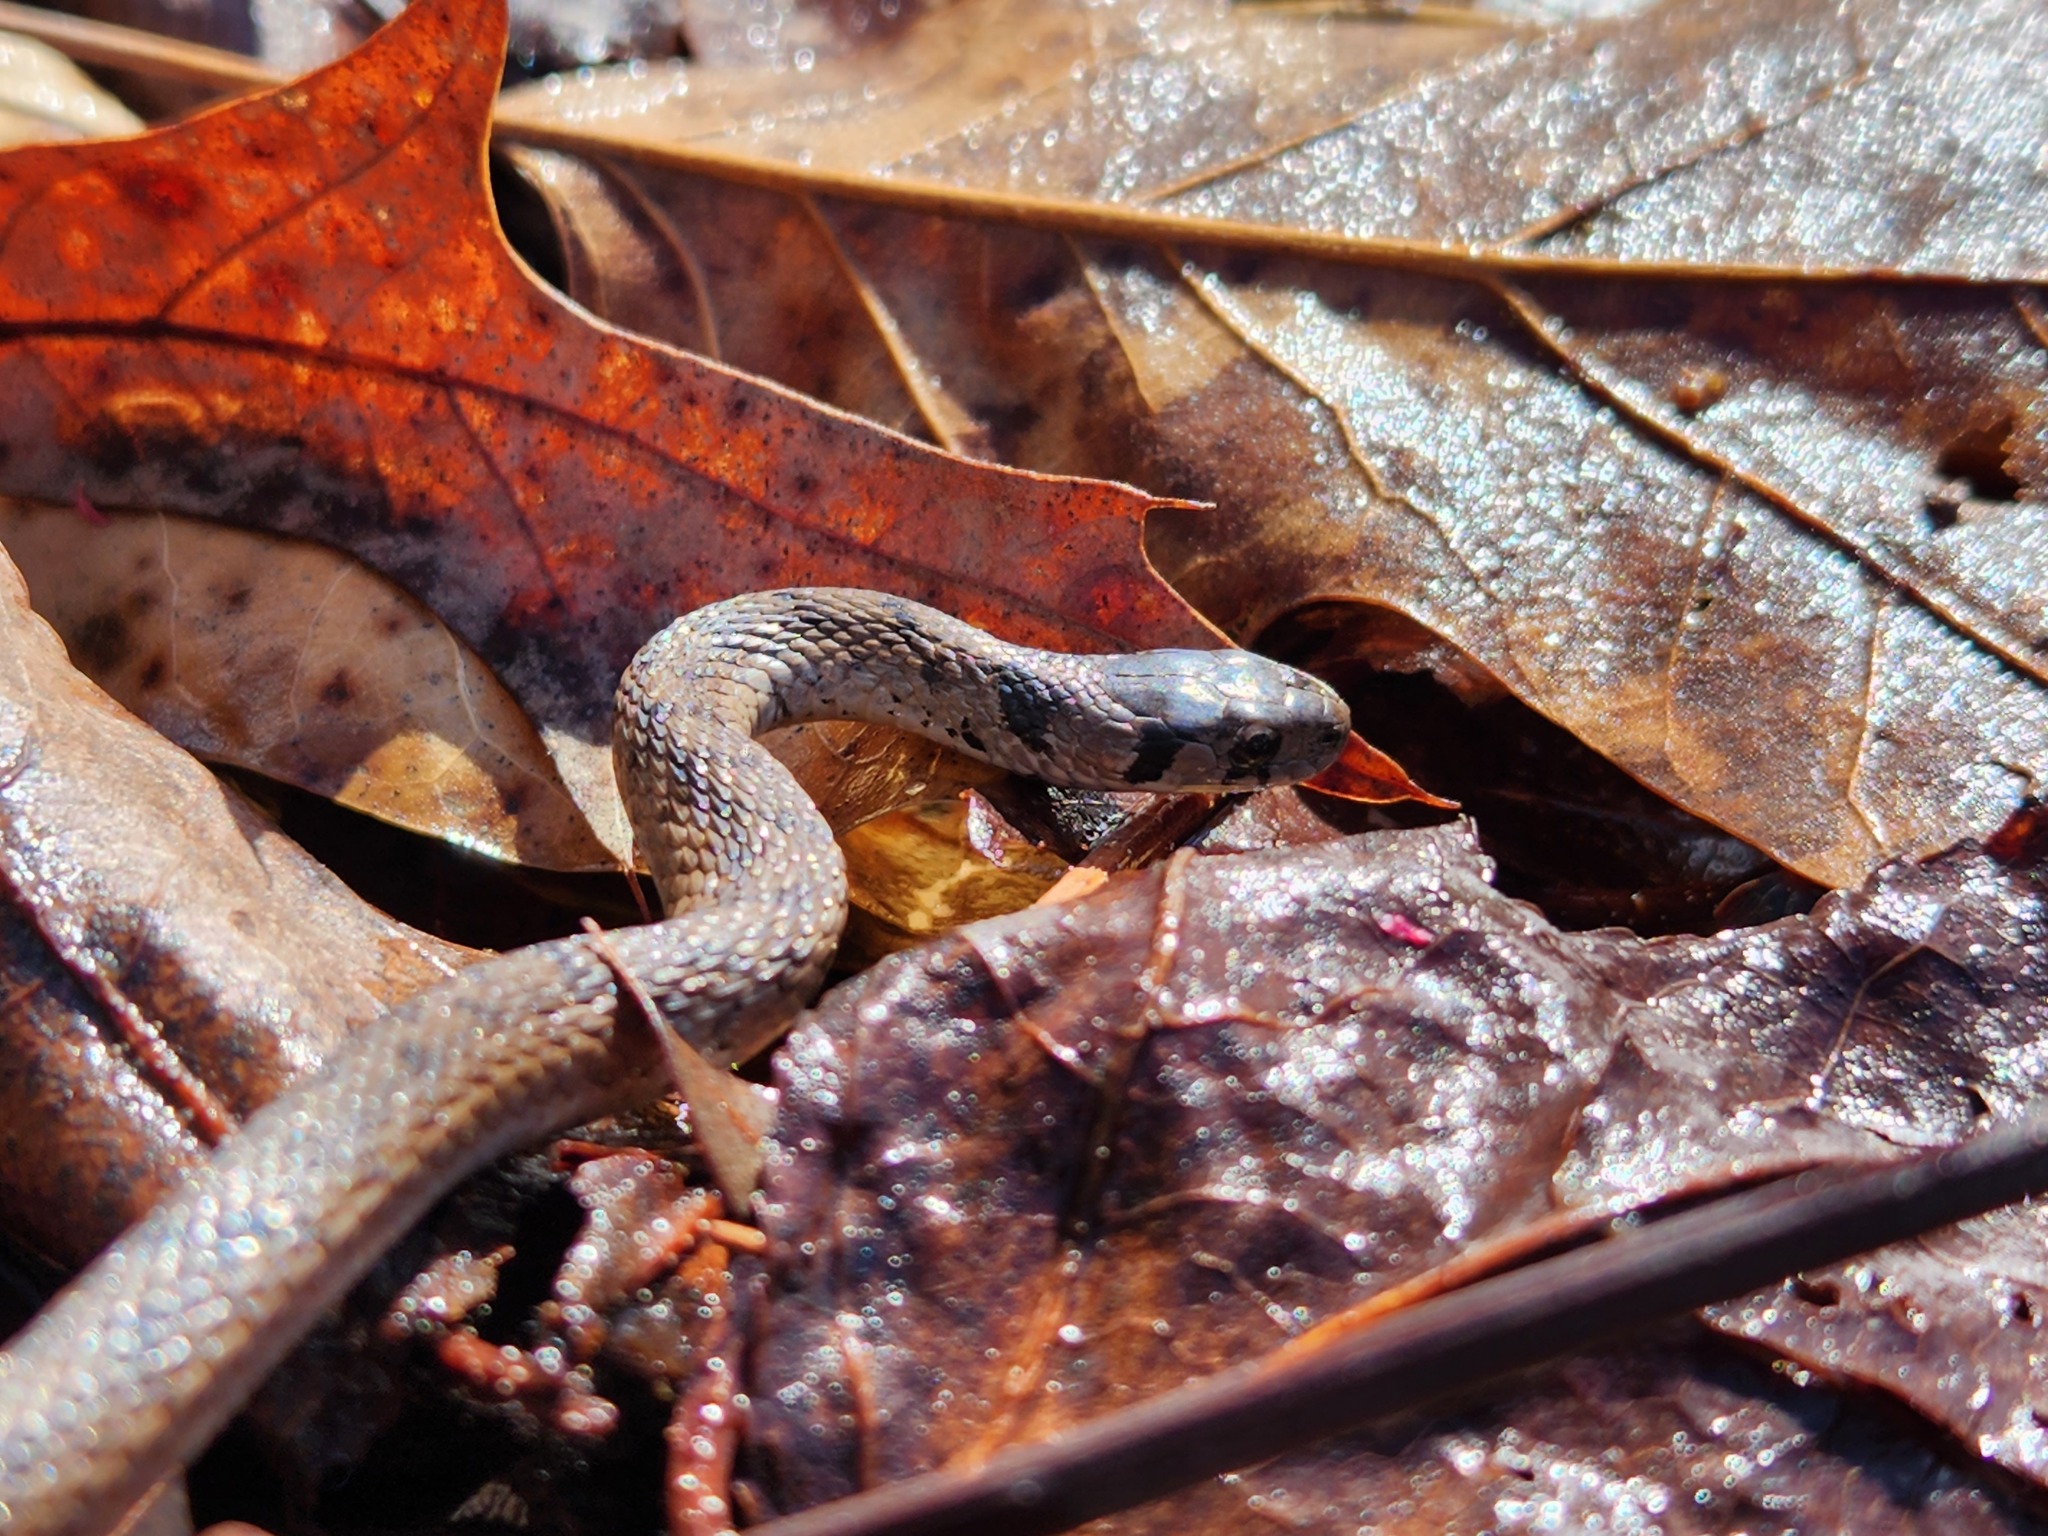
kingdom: Animalia
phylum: Chordata
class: Squamata
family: Colubridae
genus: Storeria
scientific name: Storeria dekayi
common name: (dekay’s) brown snake
